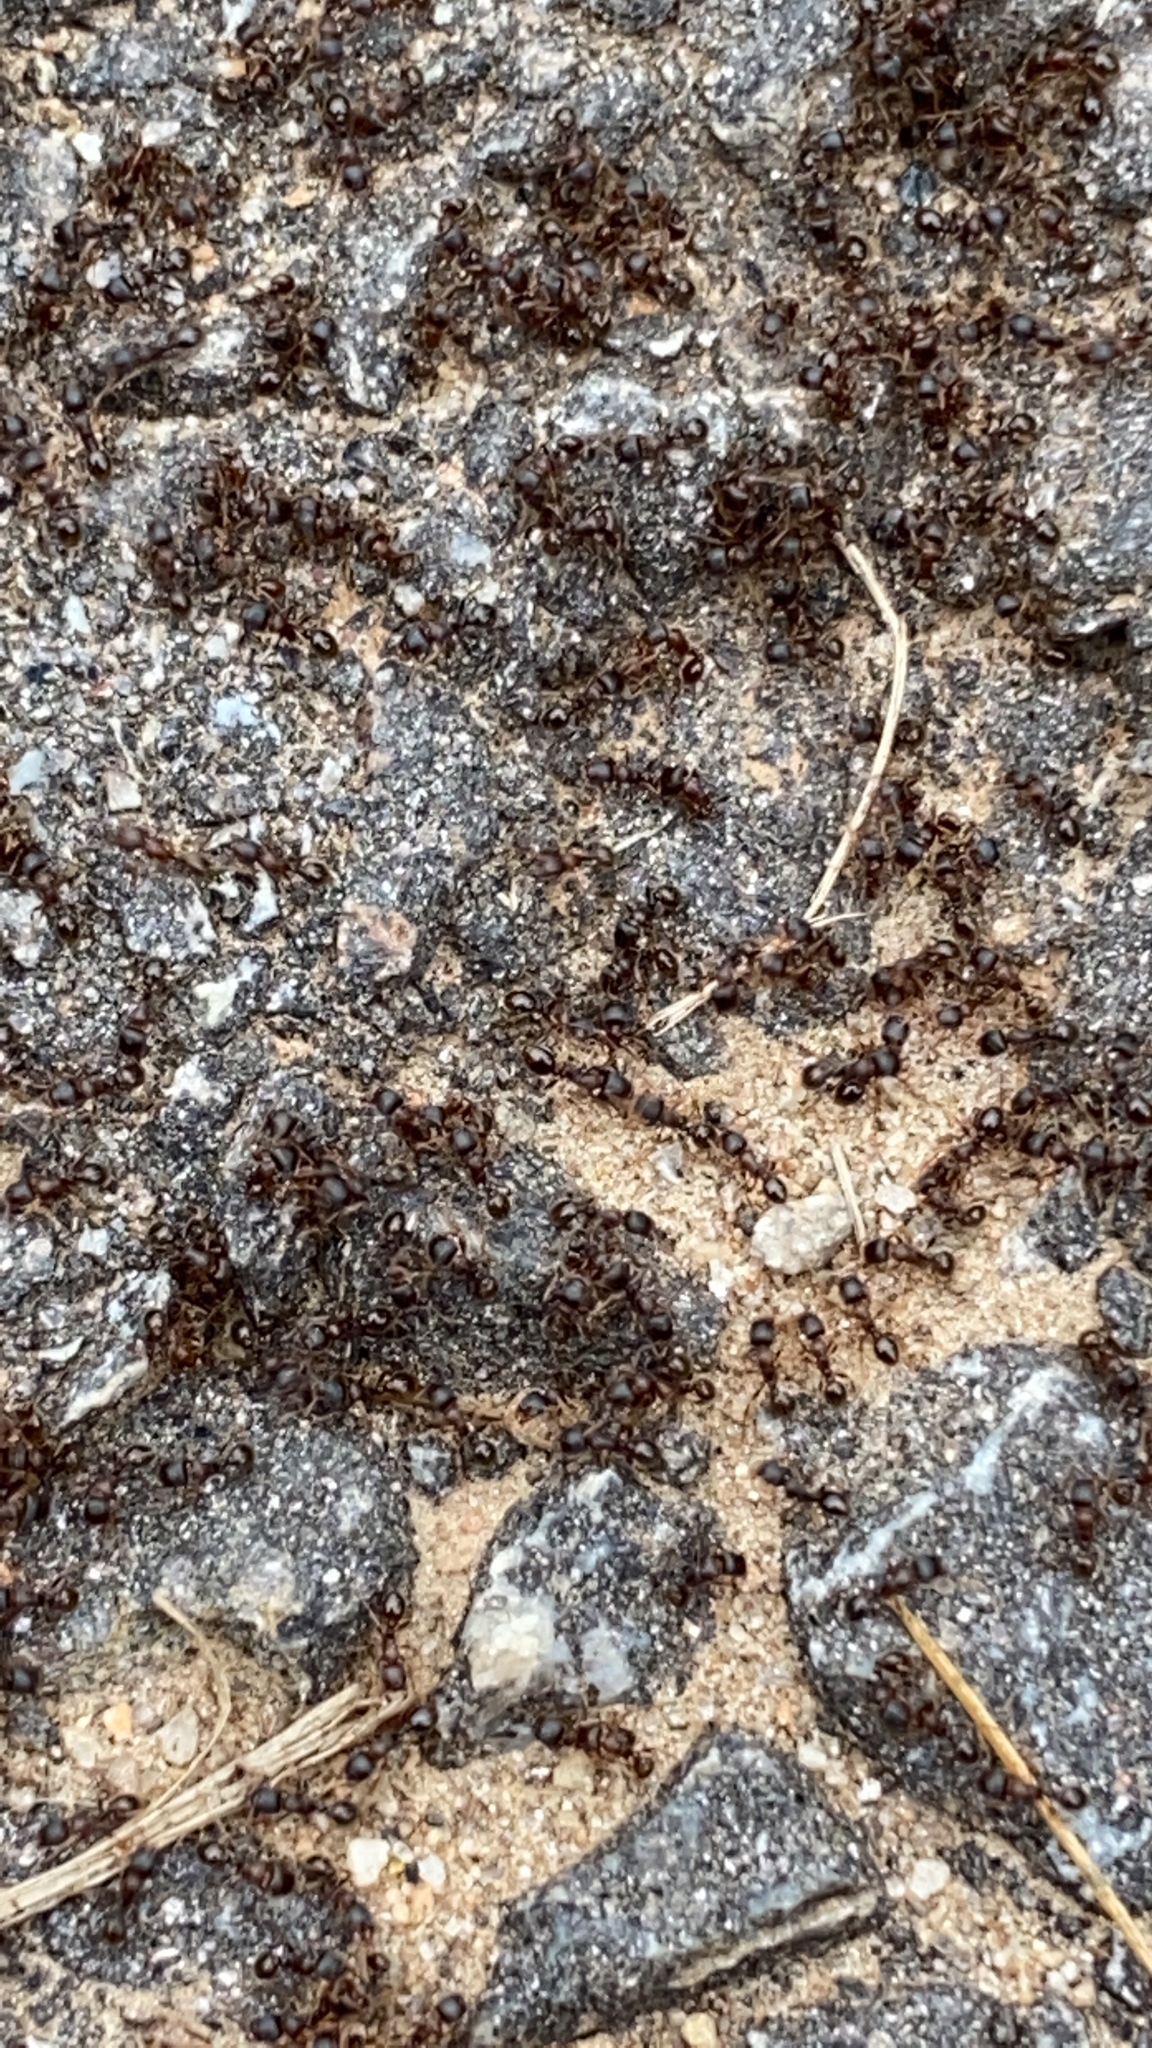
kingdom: Animalia
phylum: Arthropoda
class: Insecta
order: Hymenoptera
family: Formicidae
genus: Tetramorium
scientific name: Tetramorium immigrans
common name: Pavement ant
